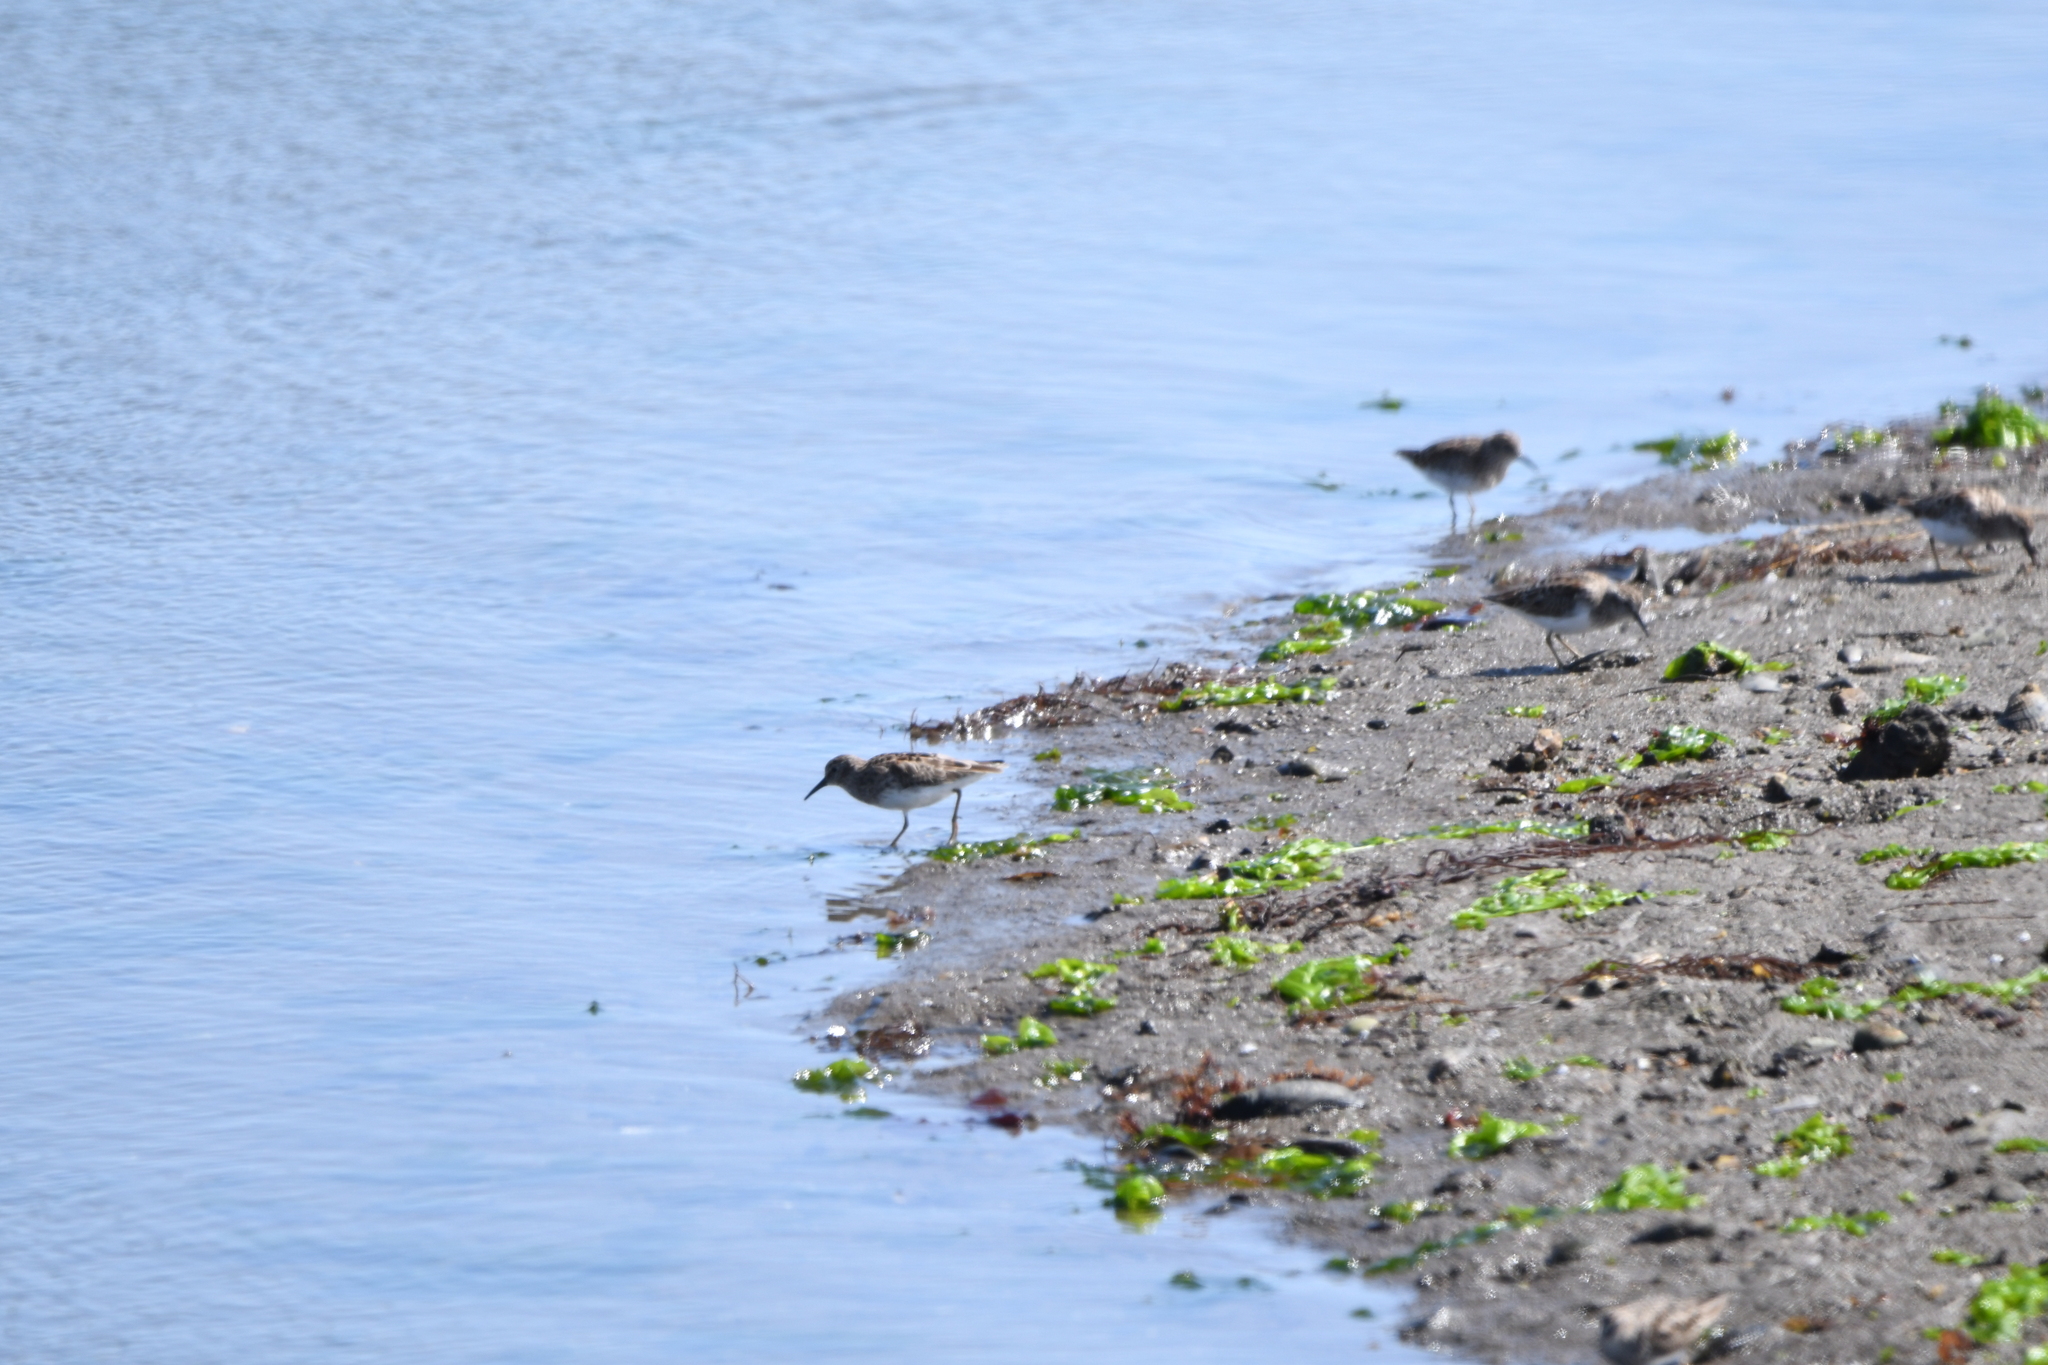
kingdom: Animalia
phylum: Chordata
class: Aves
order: Charadriiformes
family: Scolopacidae
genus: Calidris
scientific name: Calidris minutilla
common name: Least sandpiper
